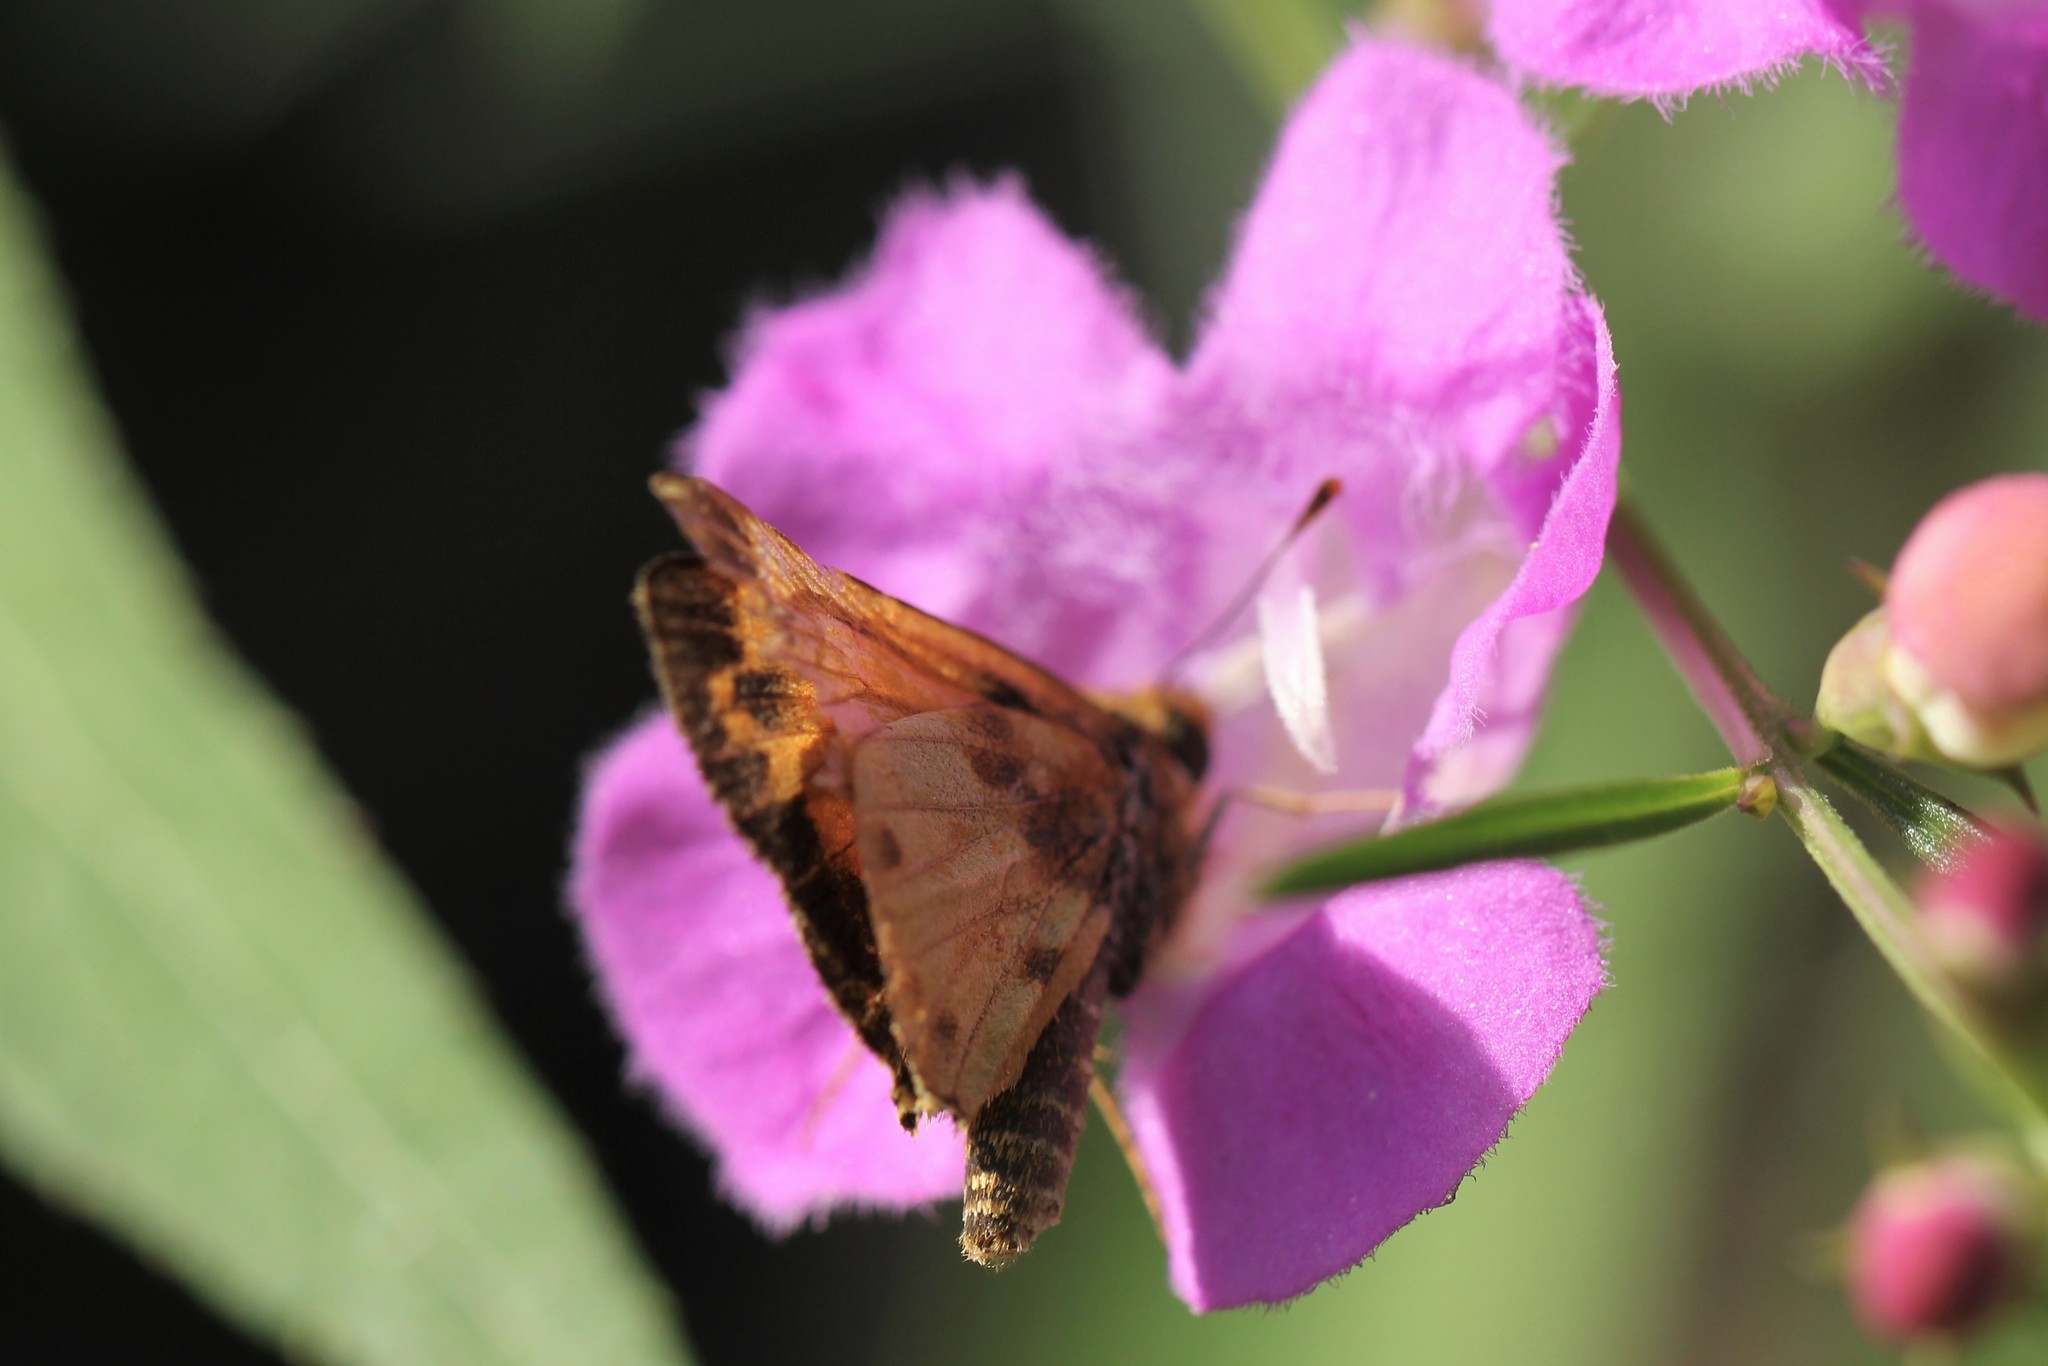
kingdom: Animalia
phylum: Arthropoda
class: Insecta
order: Lepidoptera
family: Hesperiidae
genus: Lon
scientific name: Lon zabulon
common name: Zabulon skipper
